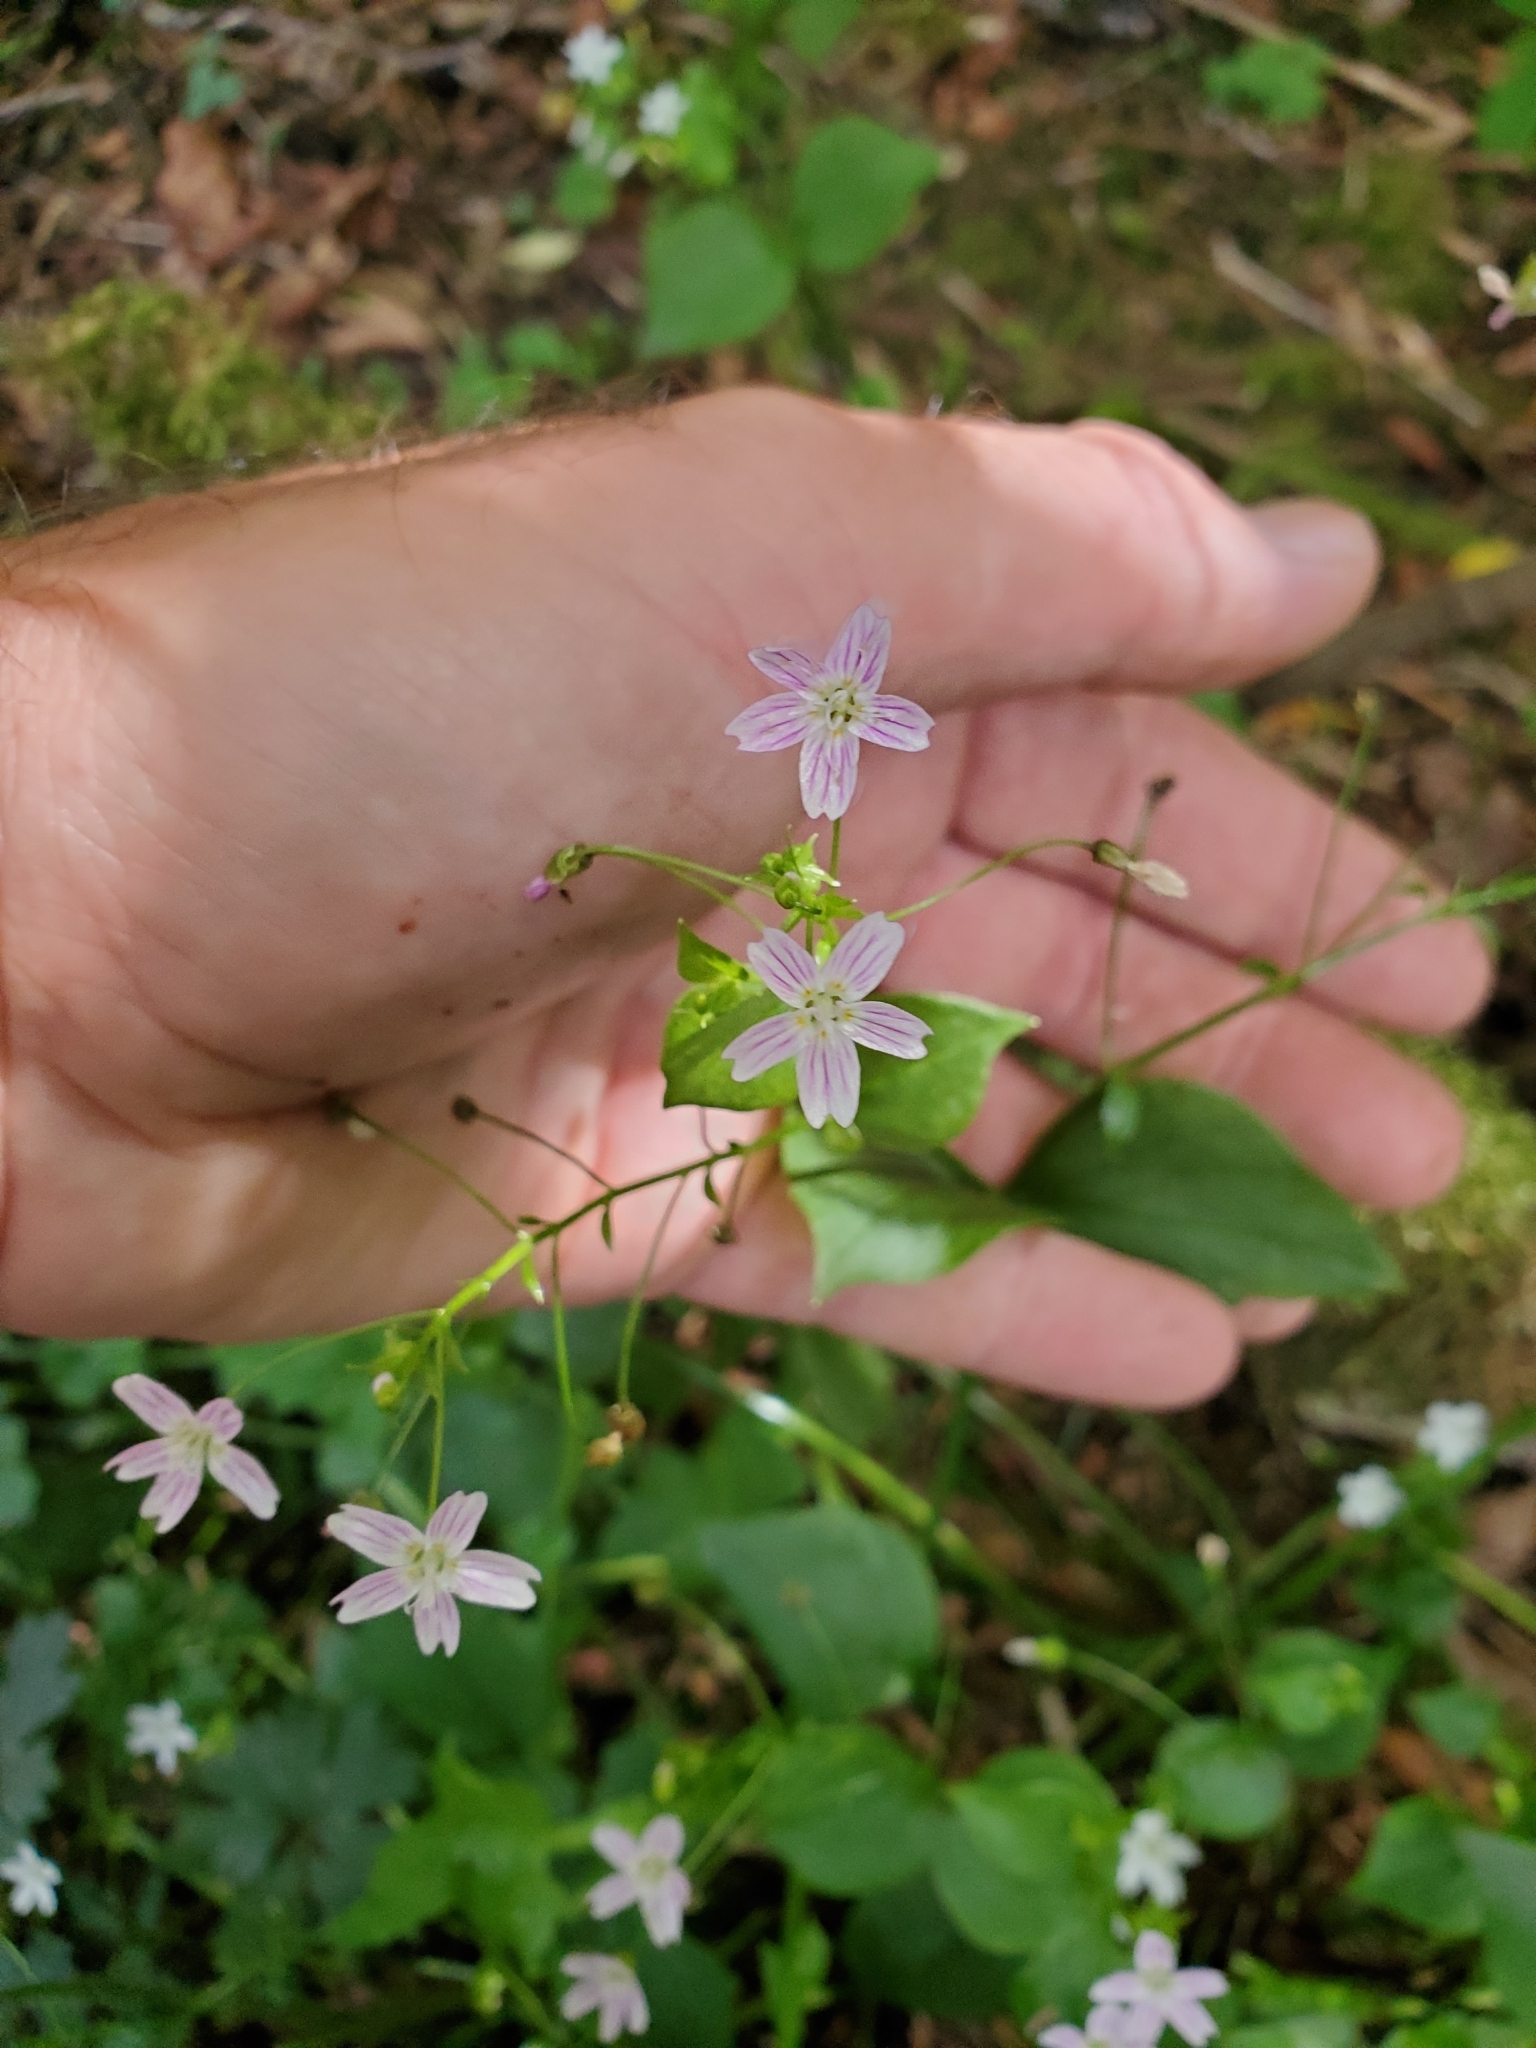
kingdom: Plantae
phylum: Tracheophyta
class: Magnoliopsida
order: Caryophyllales
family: Montiaceae
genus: Claytonia
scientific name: Claytonia sibirica
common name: Pink purslane
